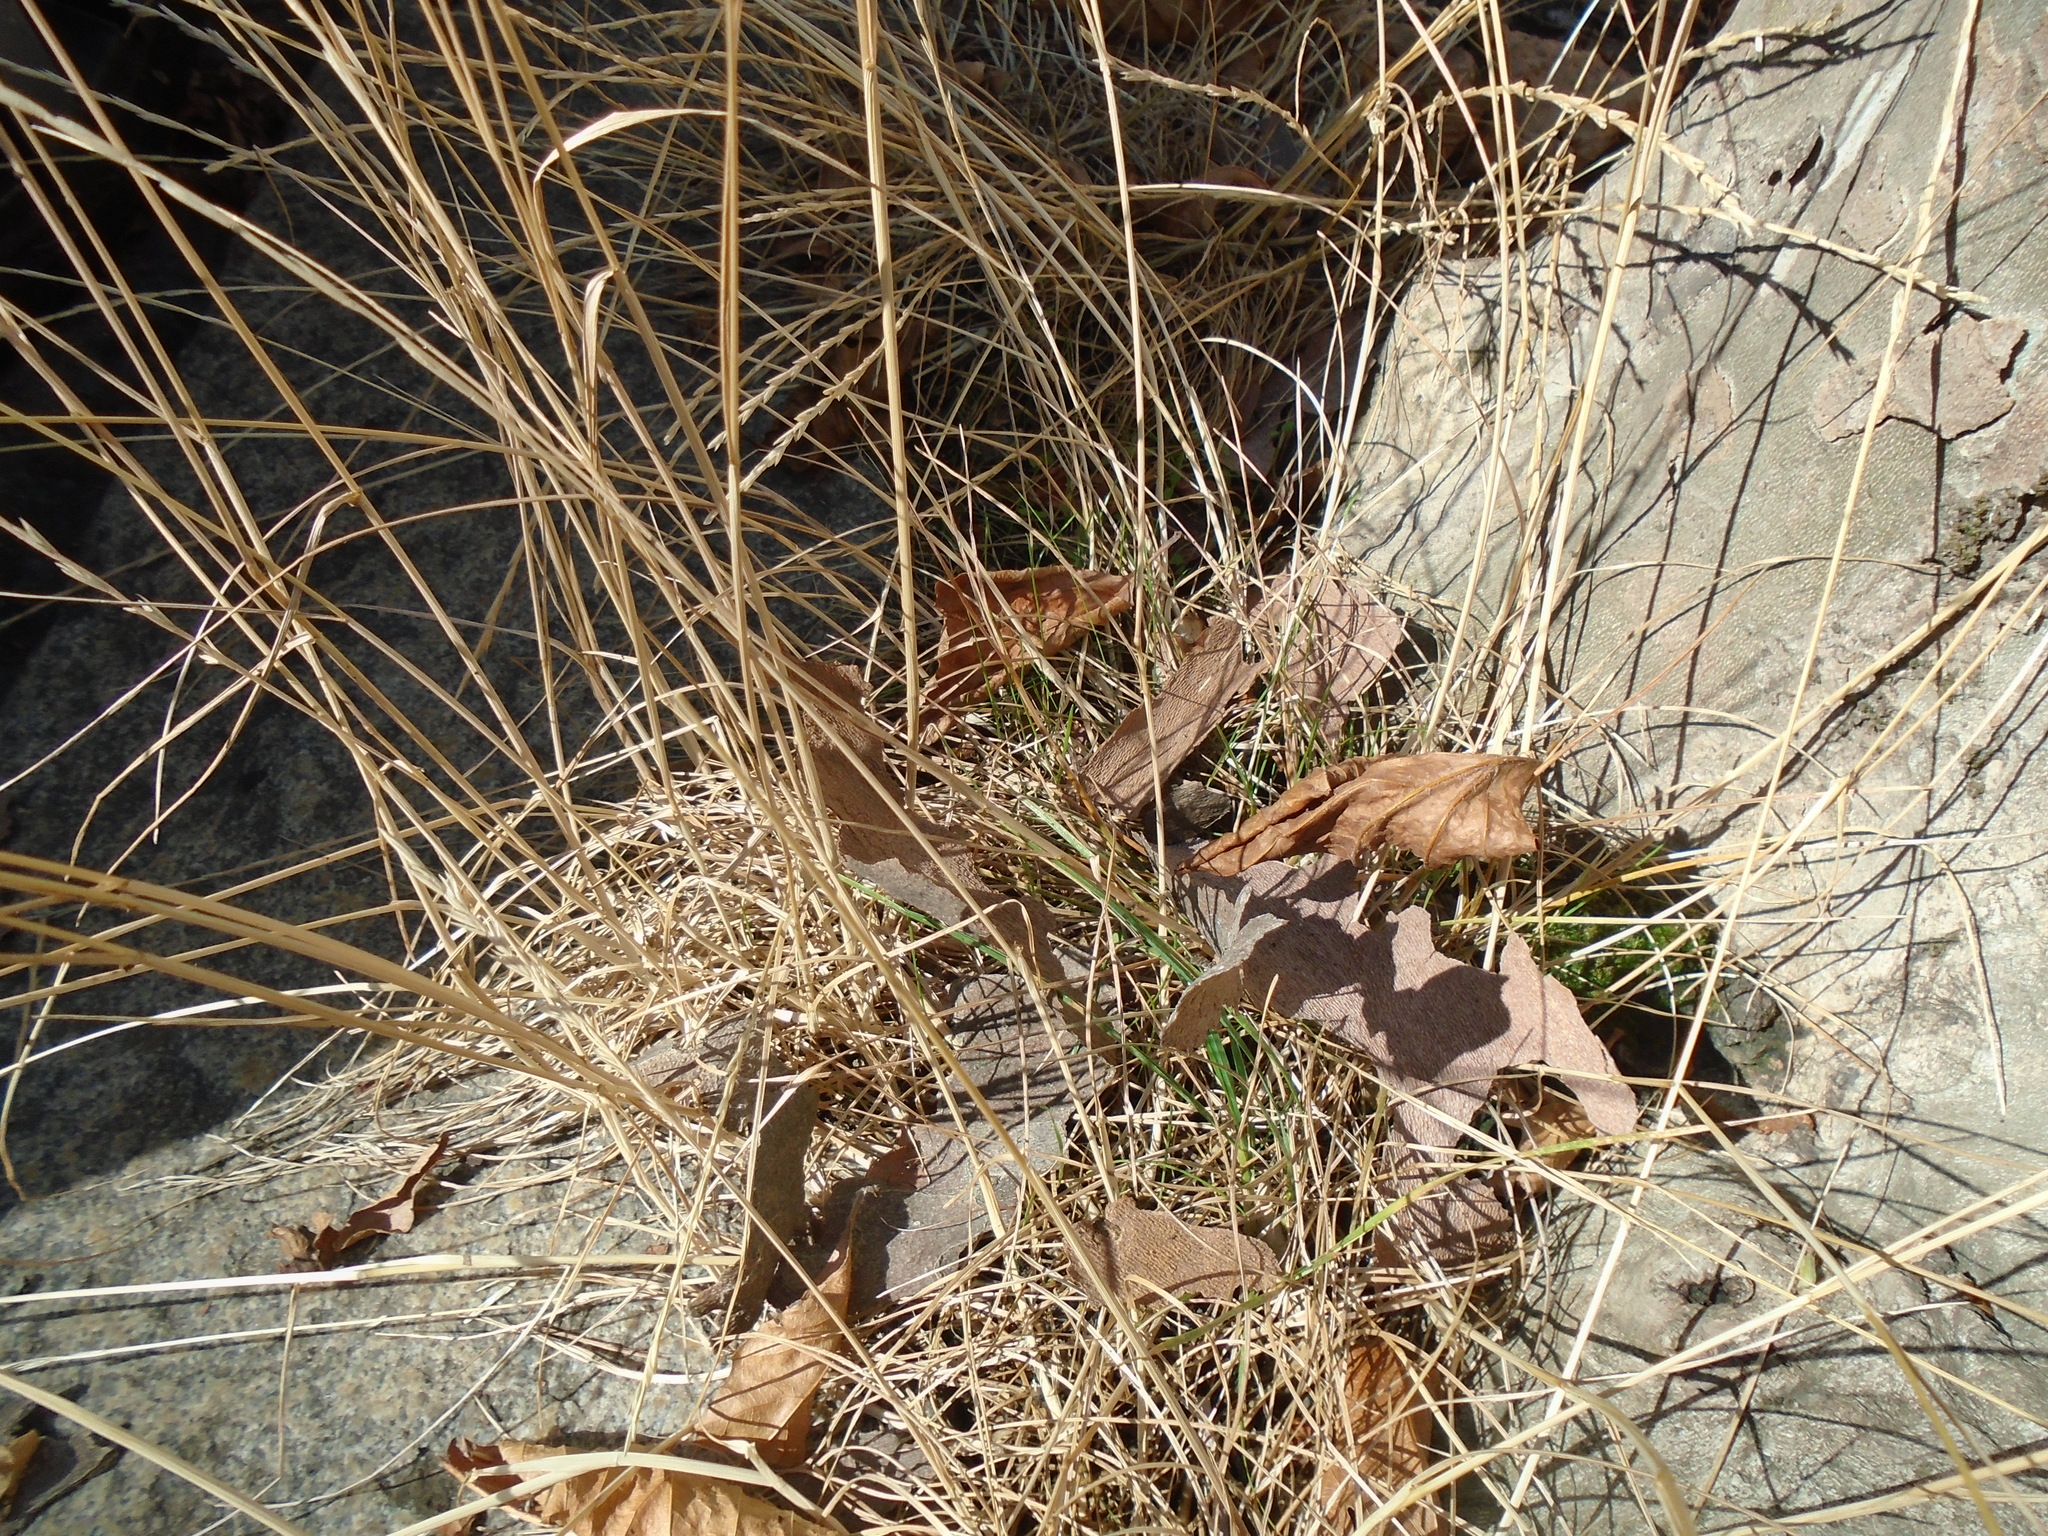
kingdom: Plantae
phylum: Tracheophyta
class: Liliopsida
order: Poales
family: Poaceae
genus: Elymus
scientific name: Elymus repens
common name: Quackgrass
